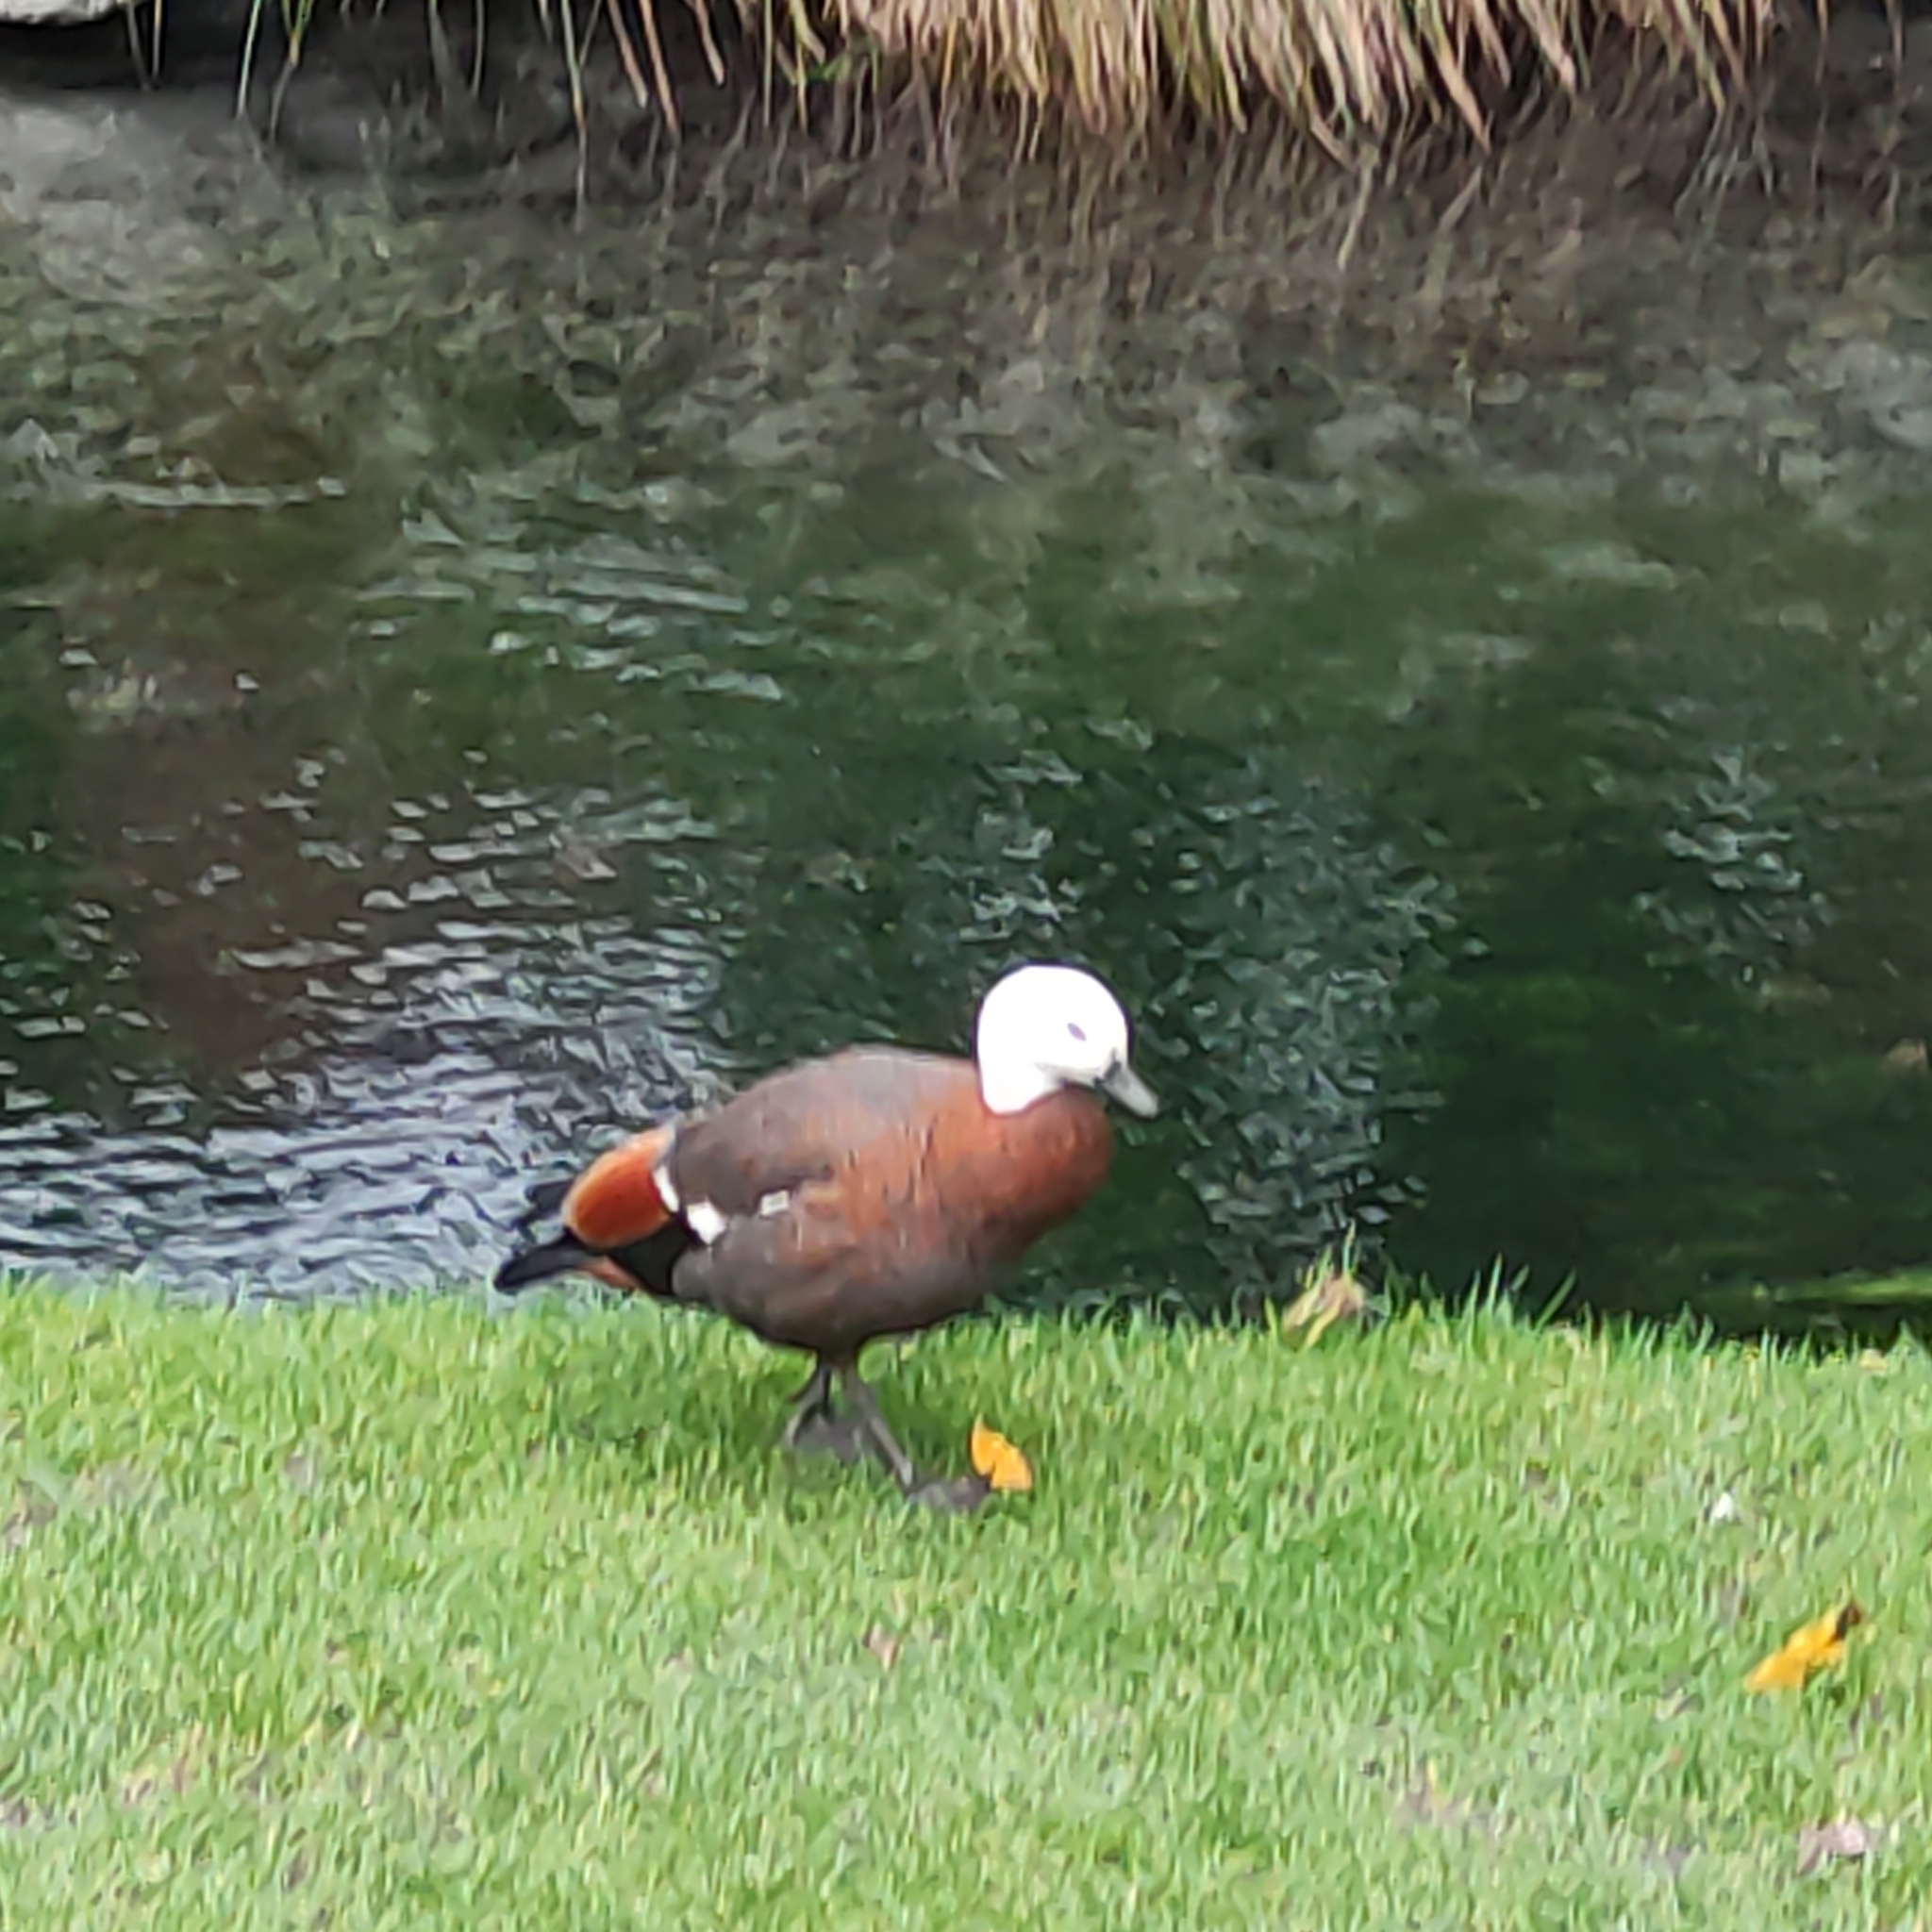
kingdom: Animalia
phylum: Chordata
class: Aves
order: Anseriformes
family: Anatidae
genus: Tadorna
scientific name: Tadorna variegata
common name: Paradise shelduck
